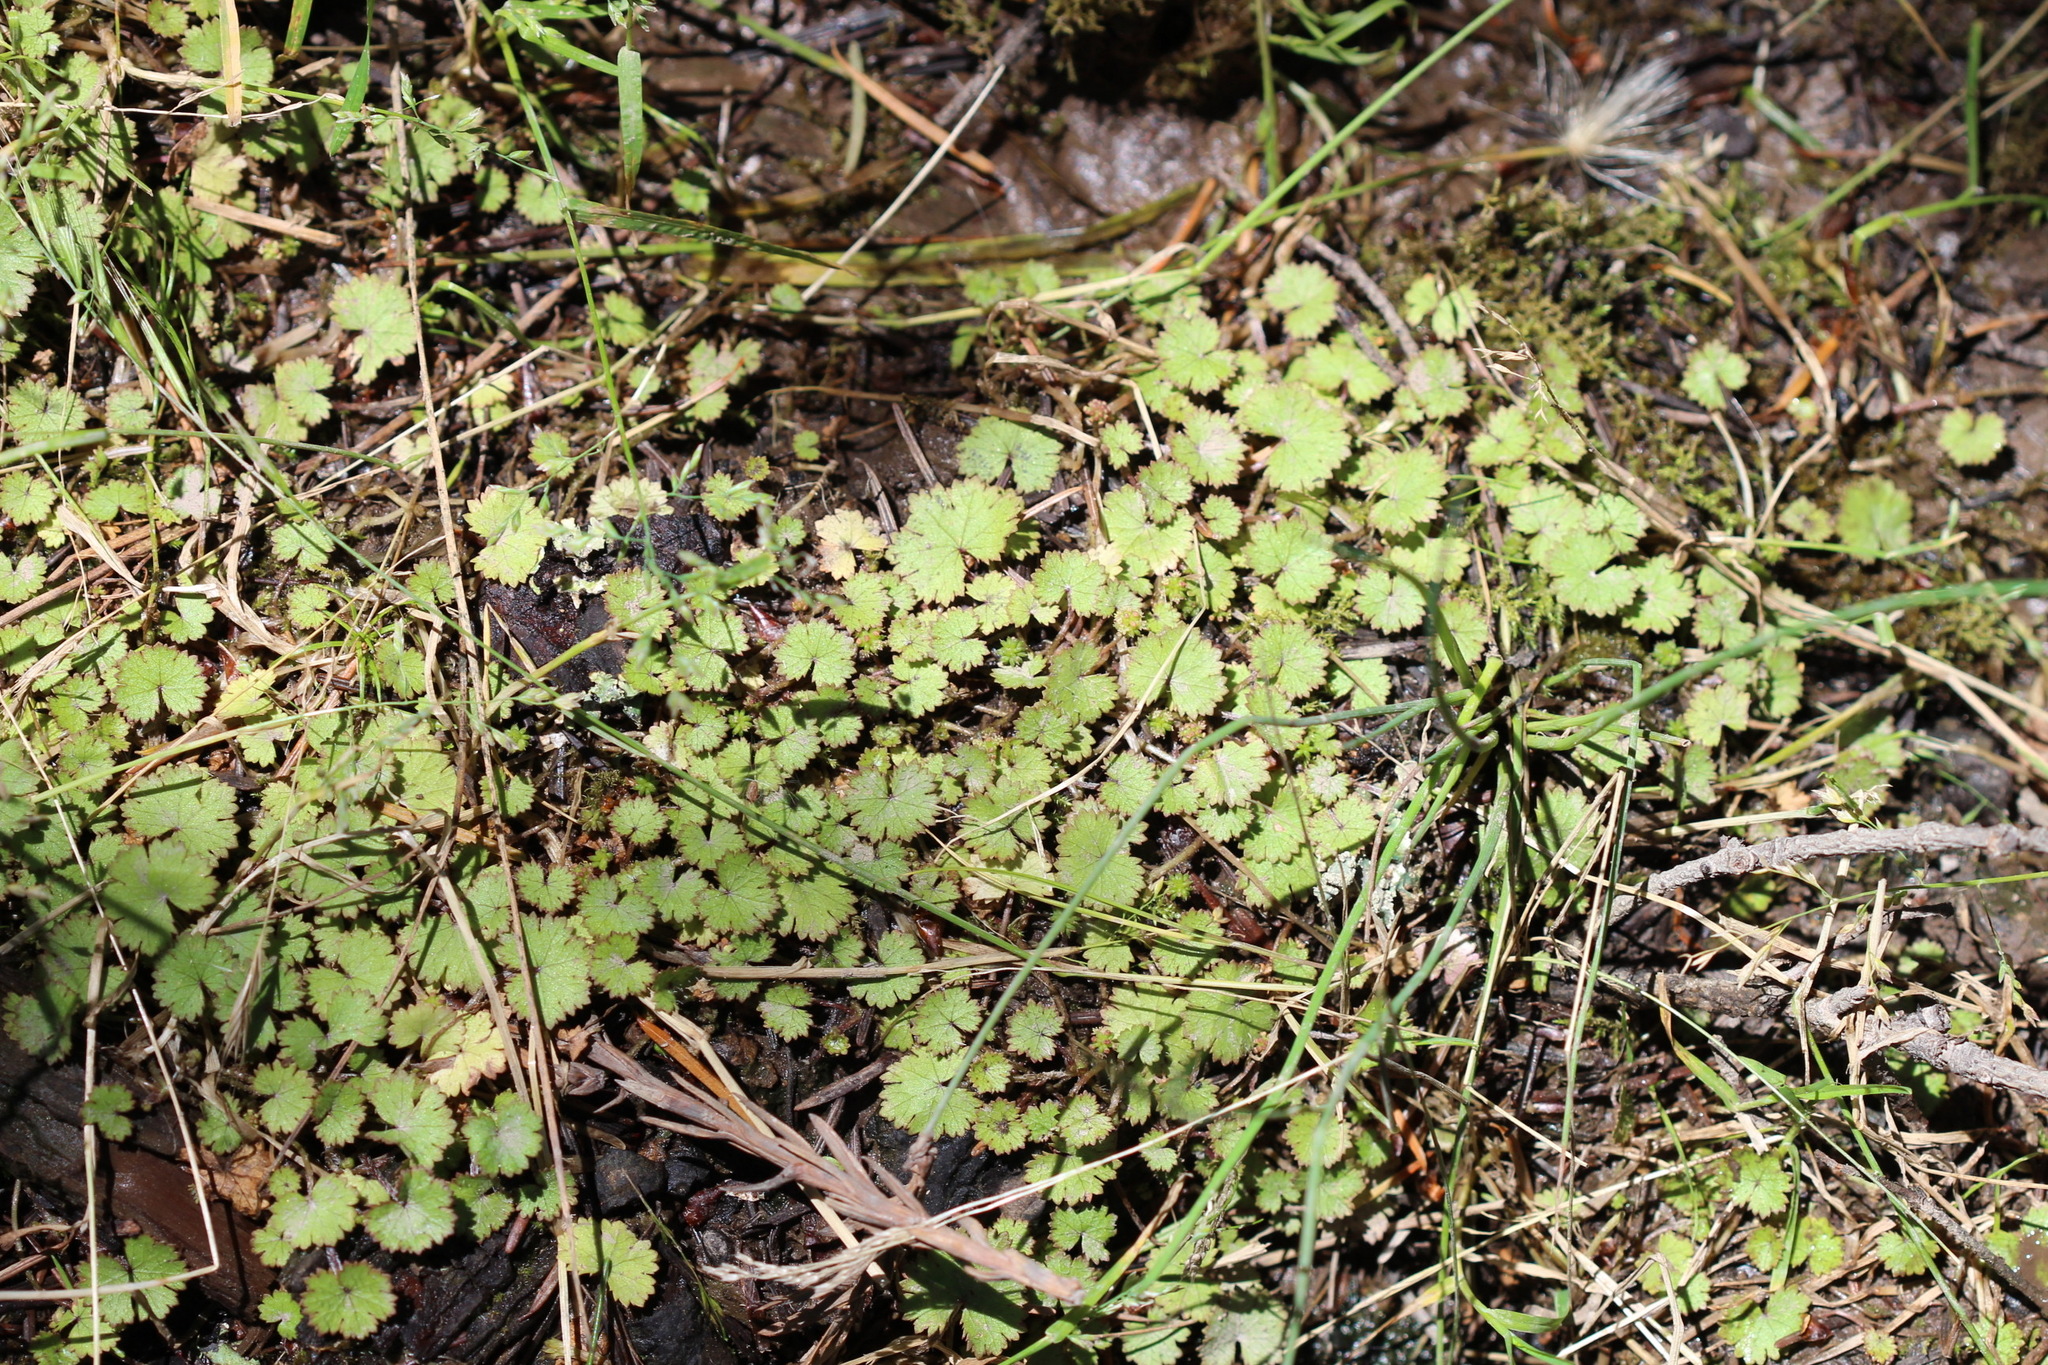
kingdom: Plantae
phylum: Tracheophyta
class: Magnoliopsida
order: Apiales
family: Araliaceae
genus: Hydrocotyle
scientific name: Hydrocotyle moschata
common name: Hairy pennywort
